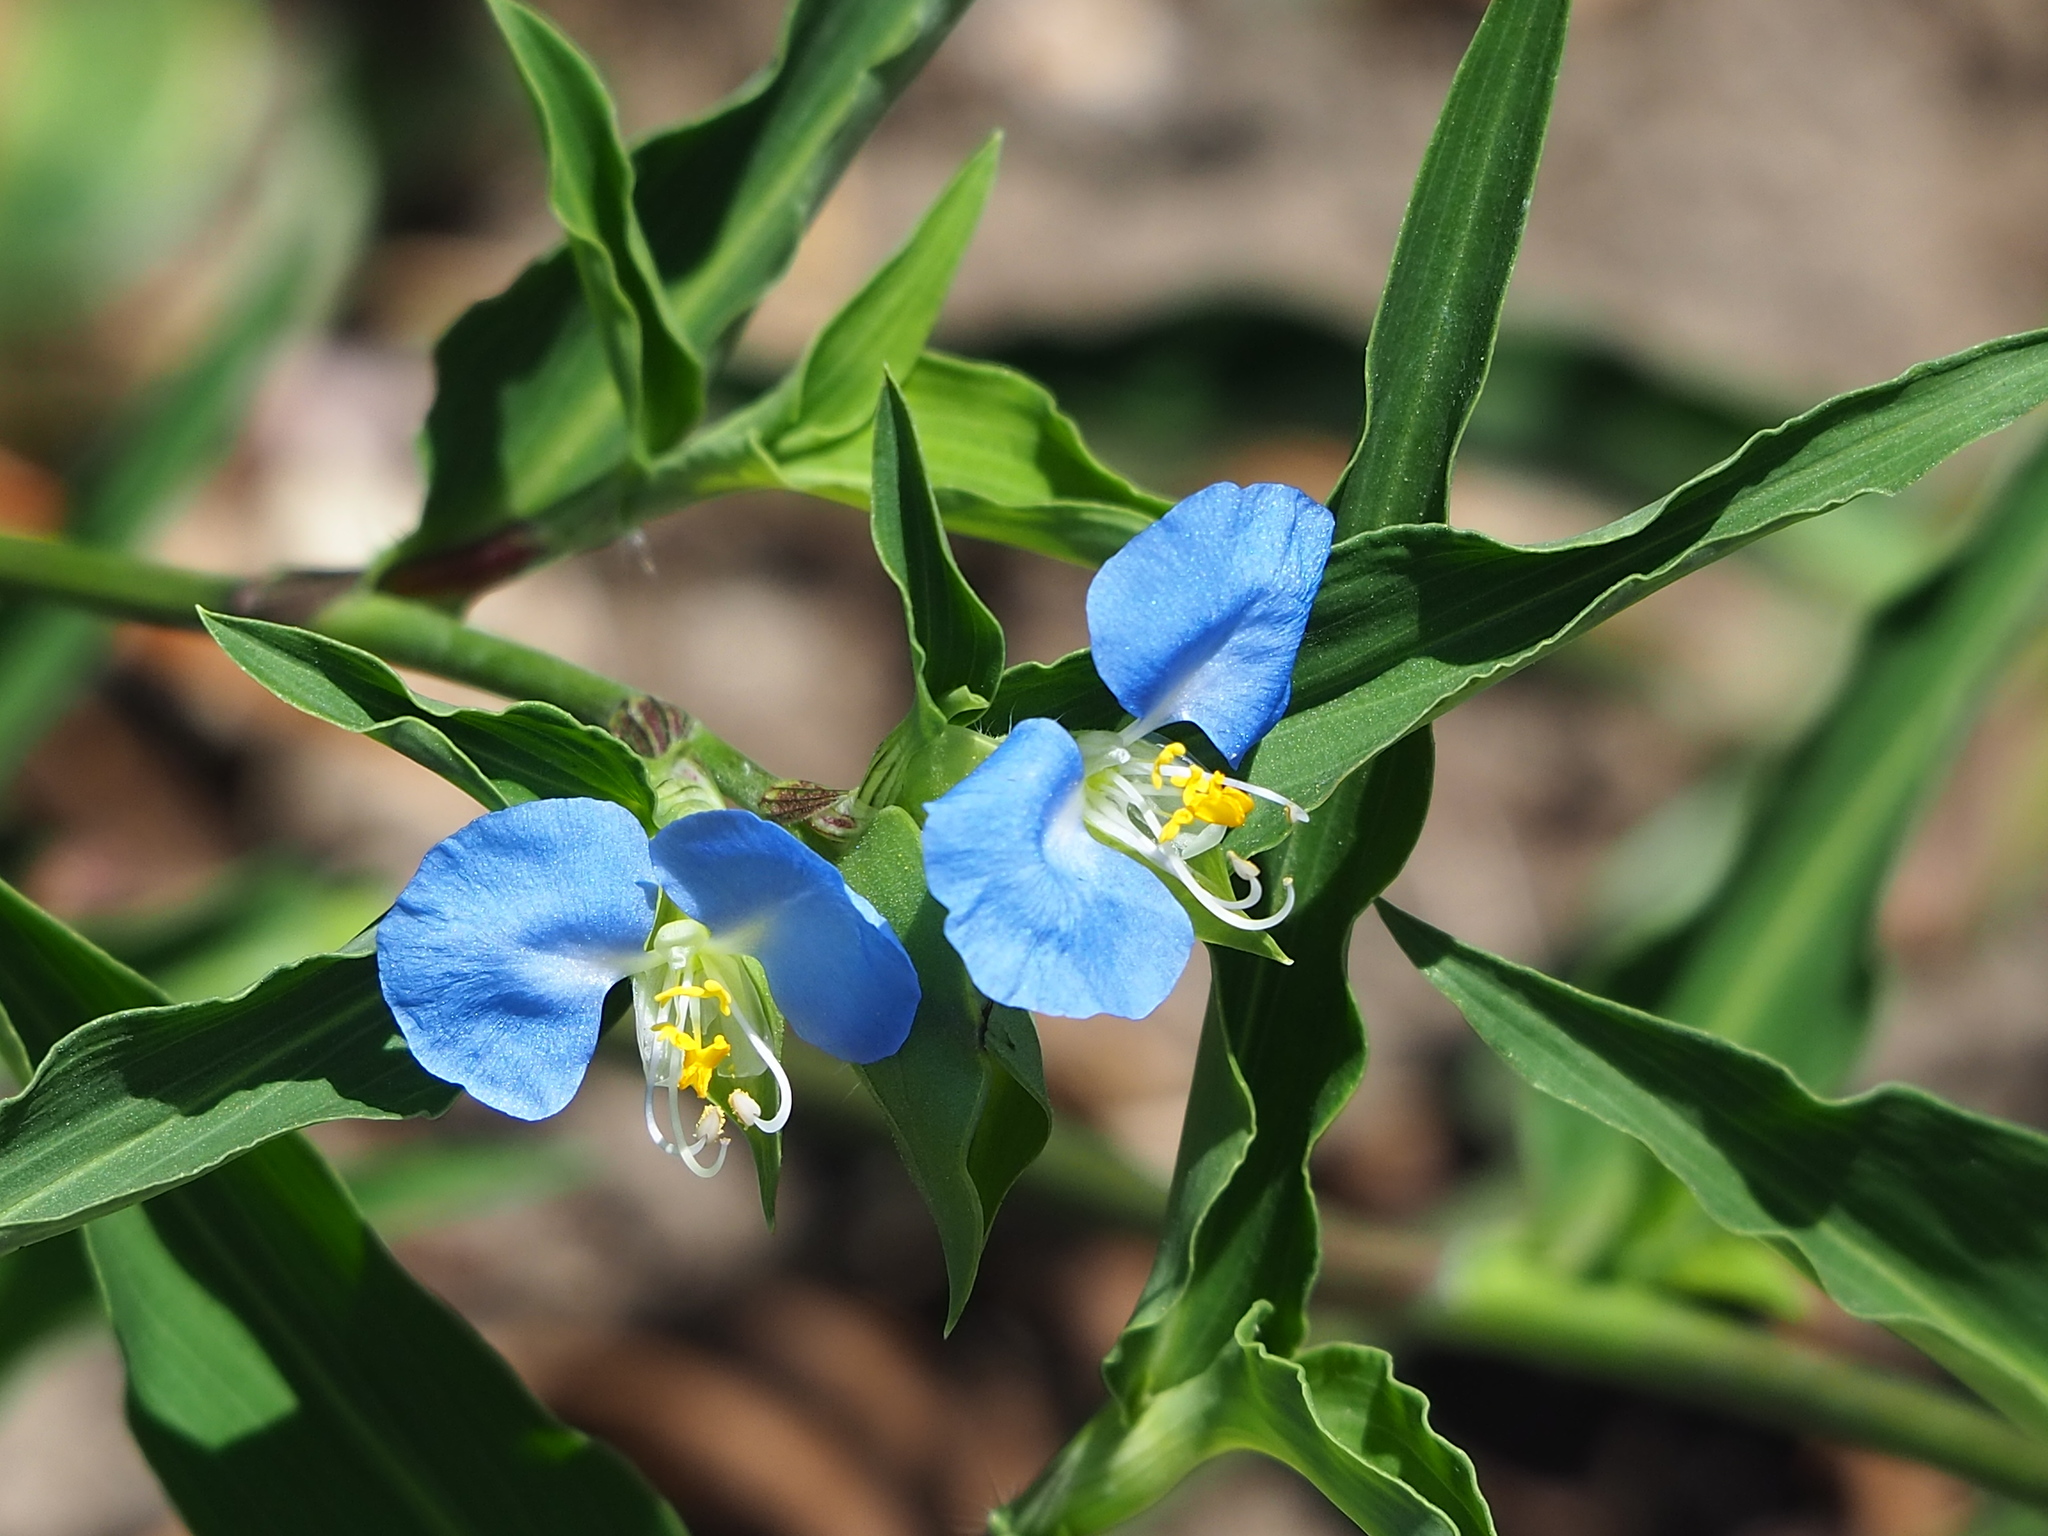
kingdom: Plantae
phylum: Tracheophyta
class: Liliopsida
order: Commelinales
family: Commelinaceae
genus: Commelina
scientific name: Commelina erecta
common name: Blousel blommetjie
